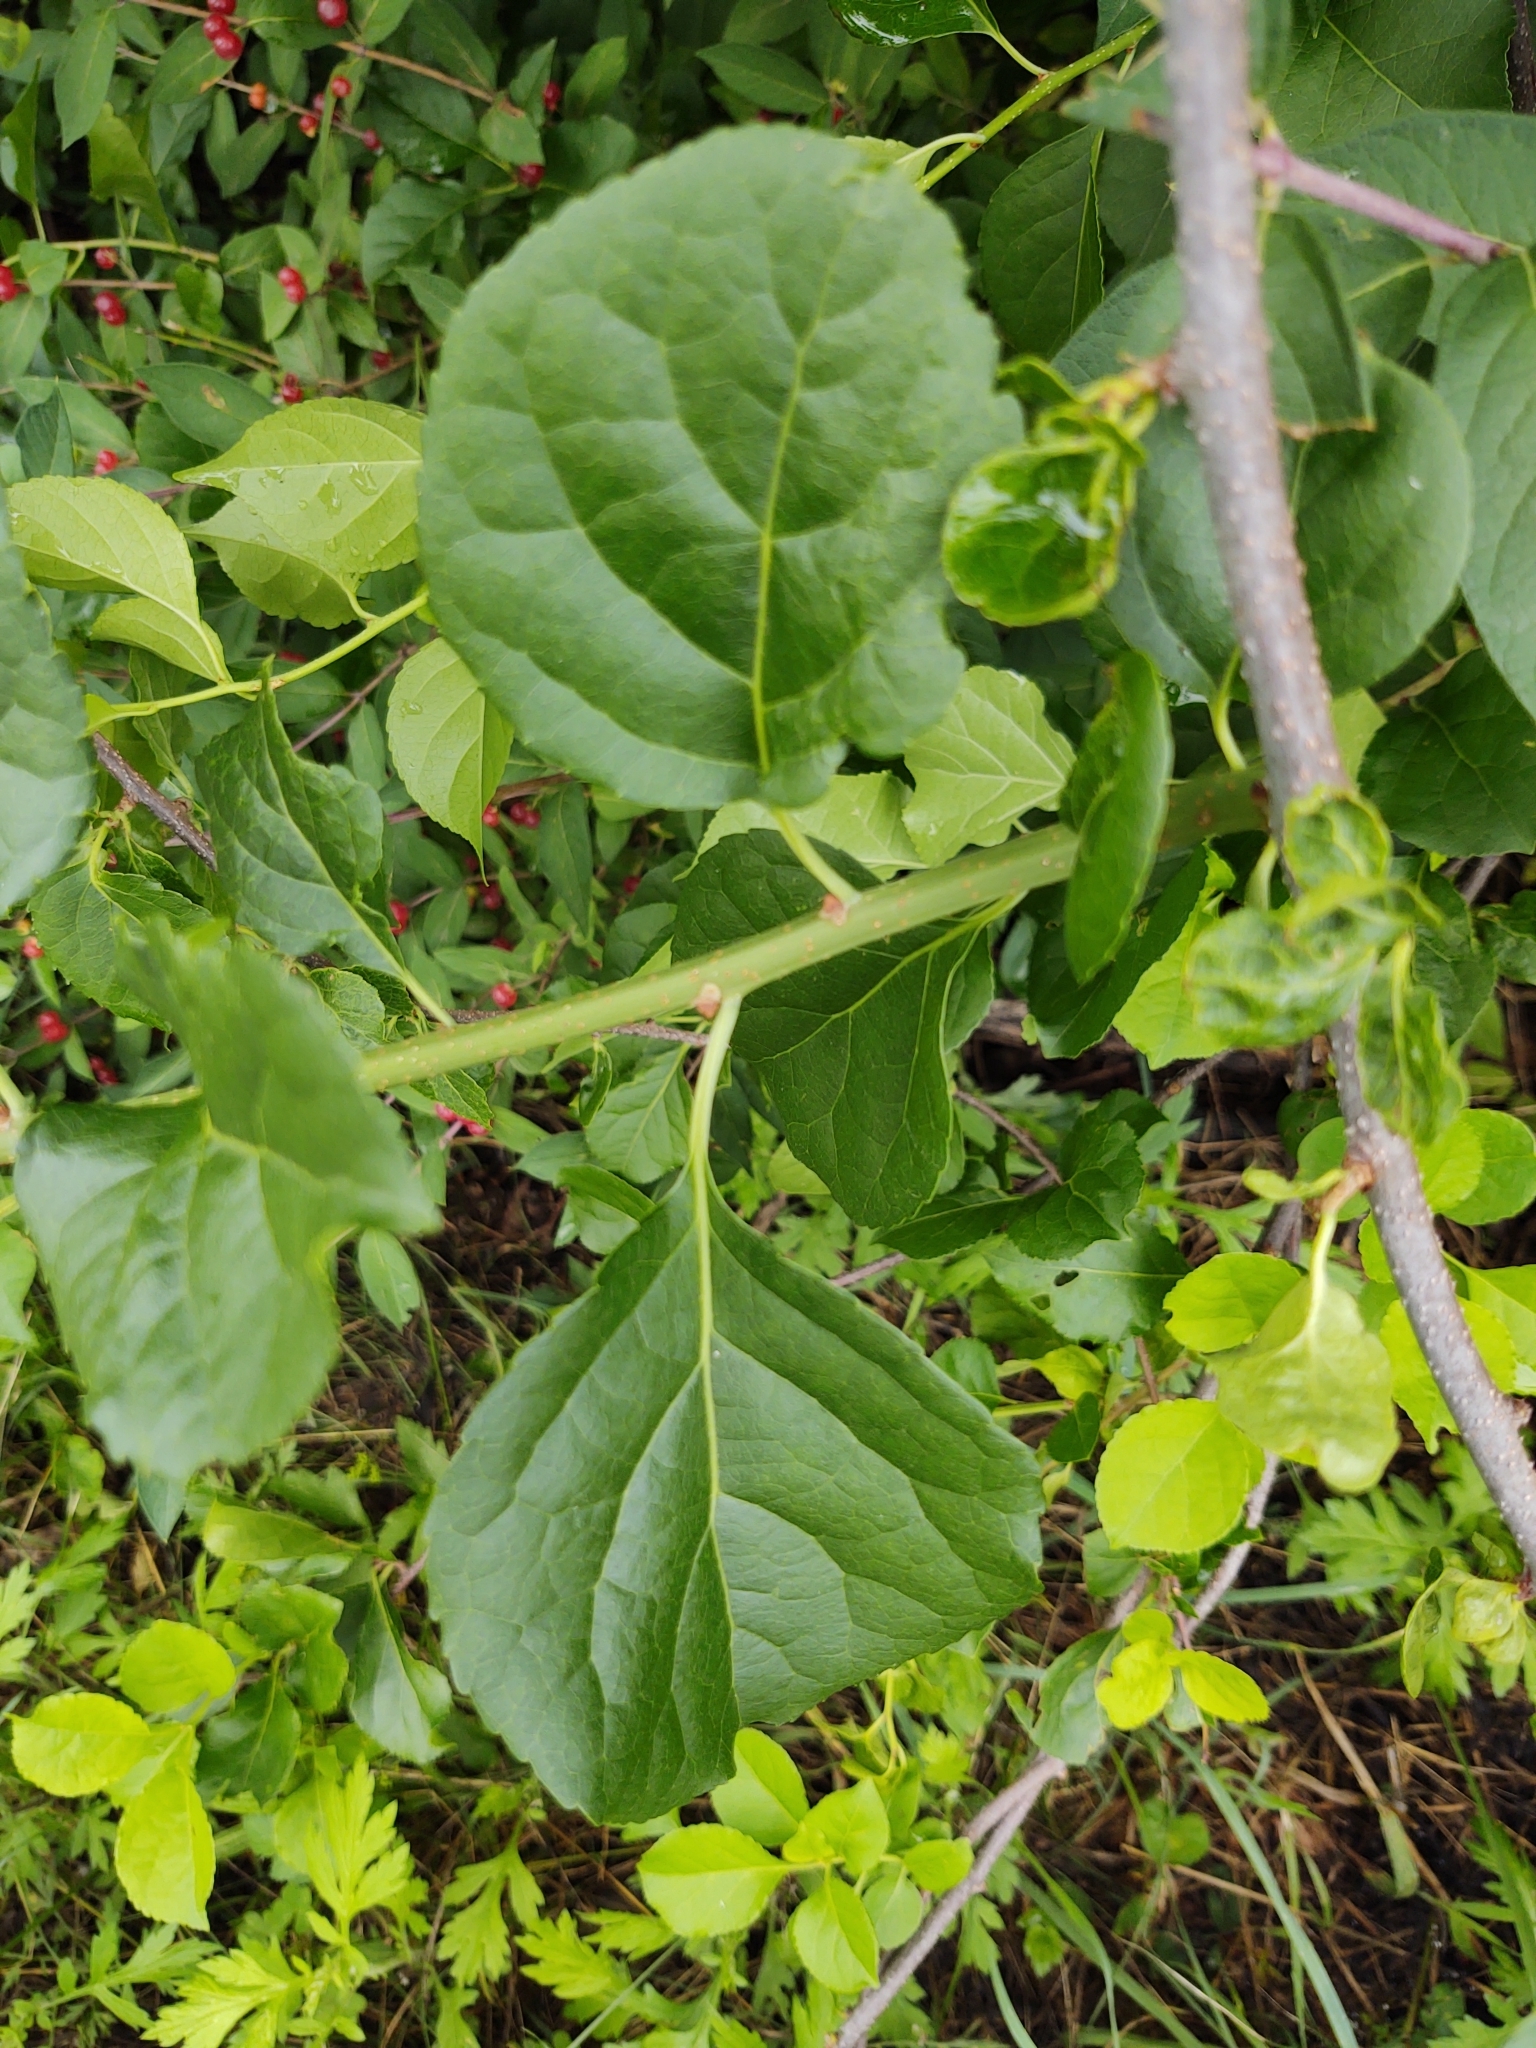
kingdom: Plantae
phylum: Tracheophyta
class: Magnoliopsida
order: Celastrales
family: Celastraceae
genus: Celastrus
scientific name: Celastrus orbiculatus
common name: Oriental bittersweet
